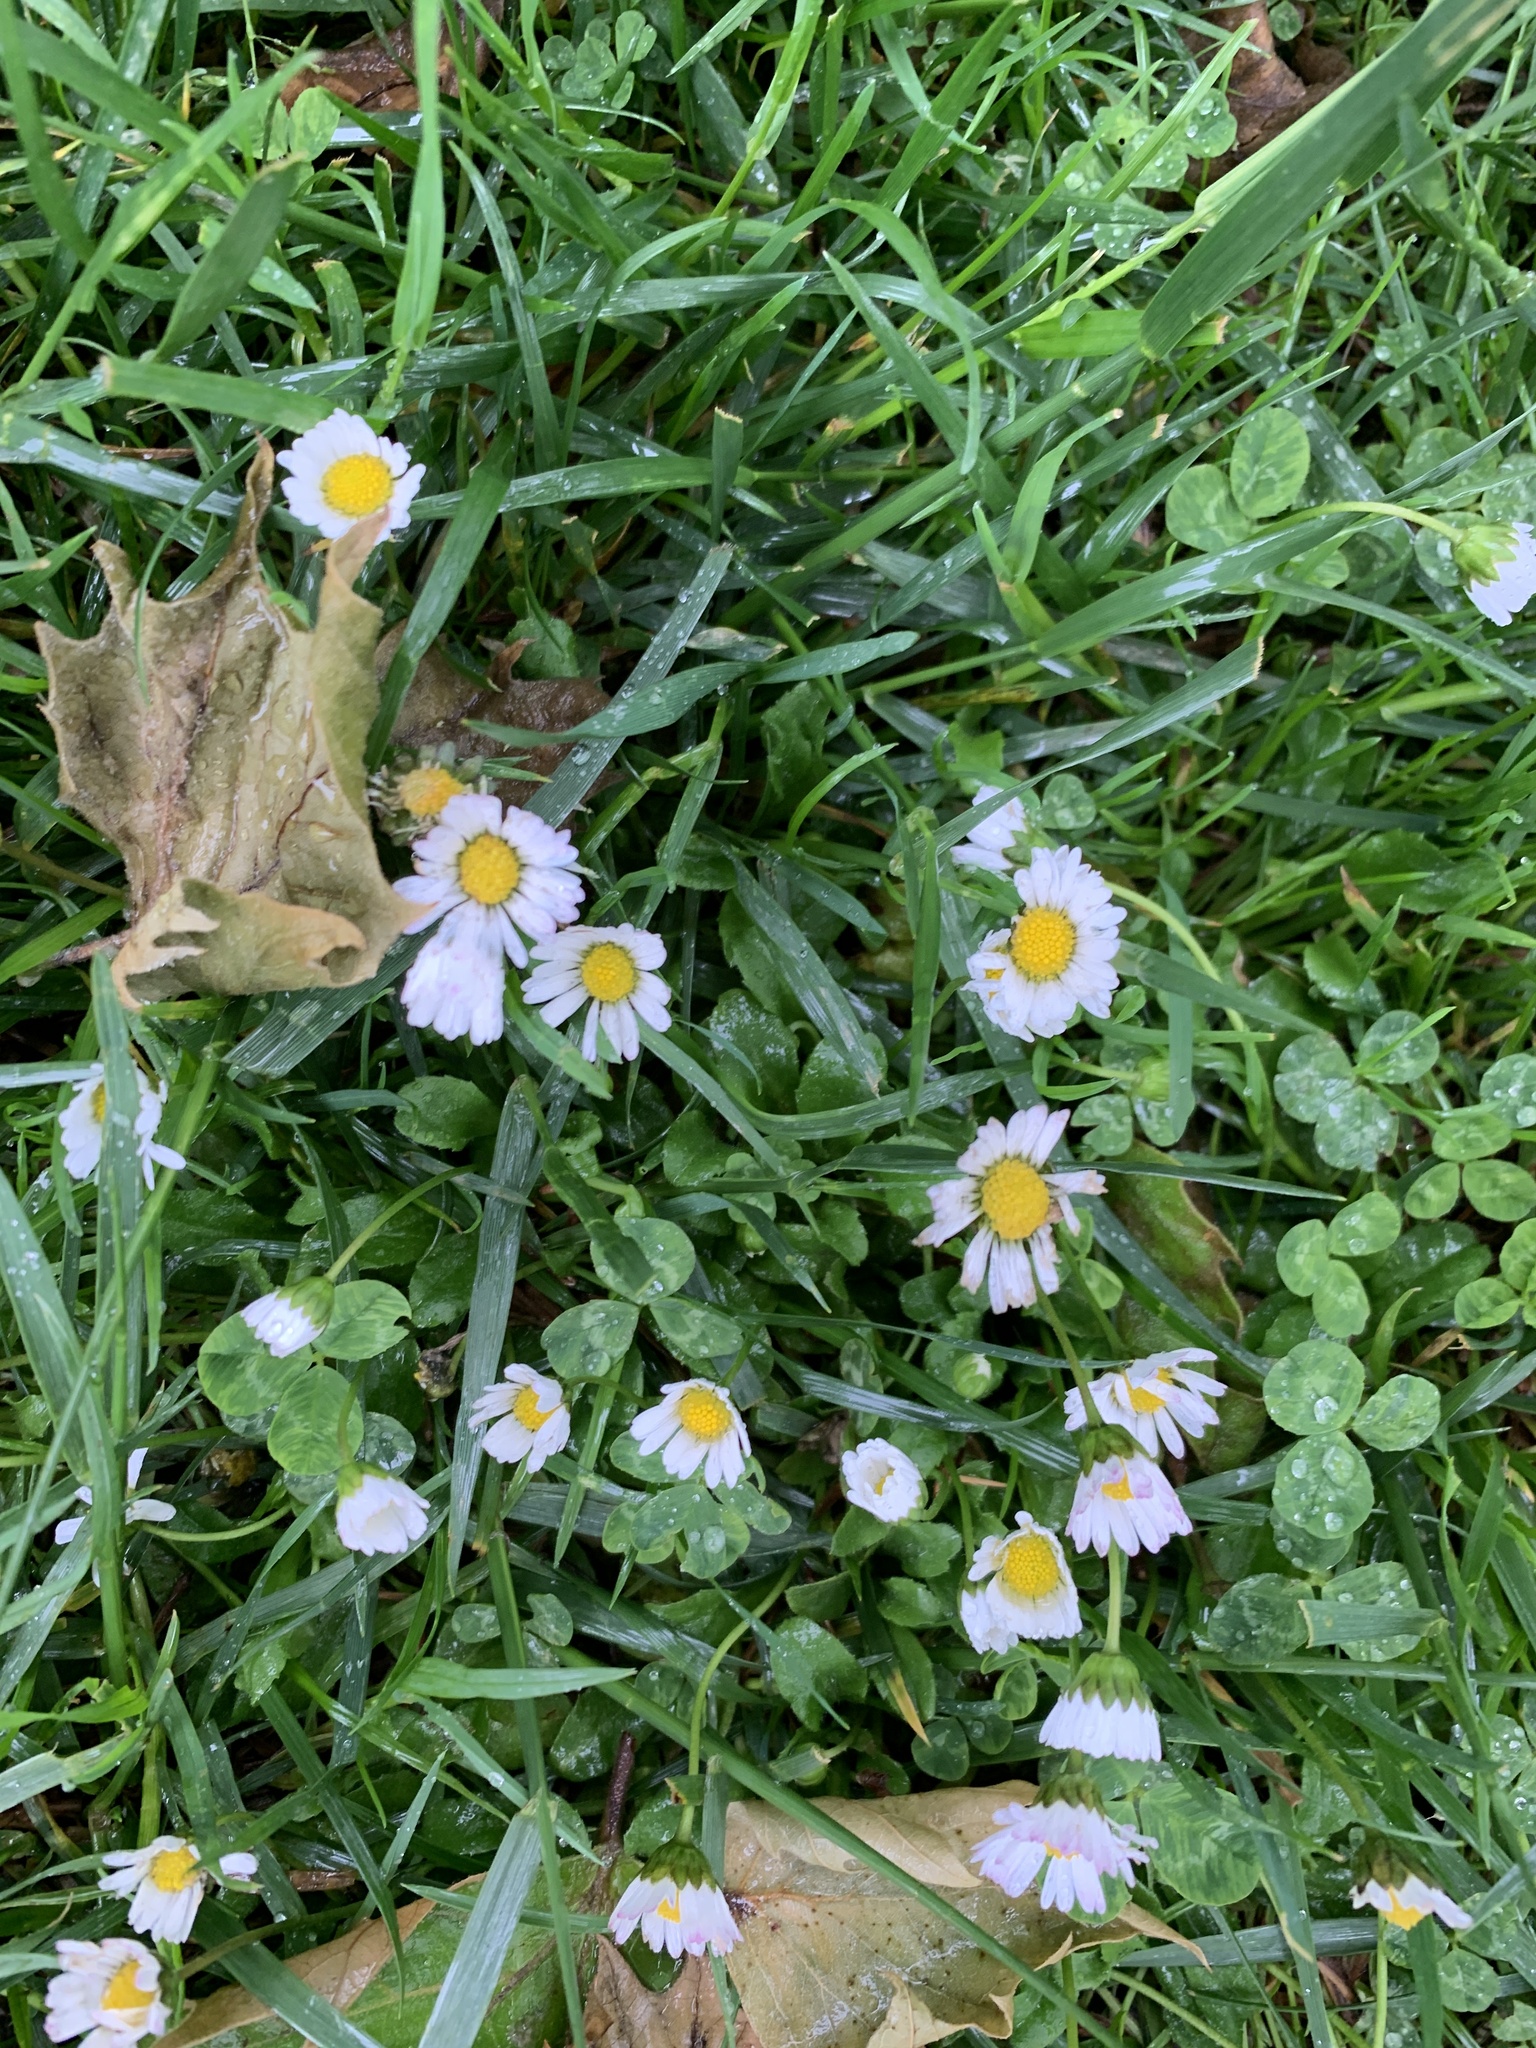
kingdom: Plantae
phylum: Tracheophyta
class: Magnoliopsida
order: Asterales
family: Asteraceae
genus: Bellis
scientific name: Bellis perennis
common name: Lawndaisy
